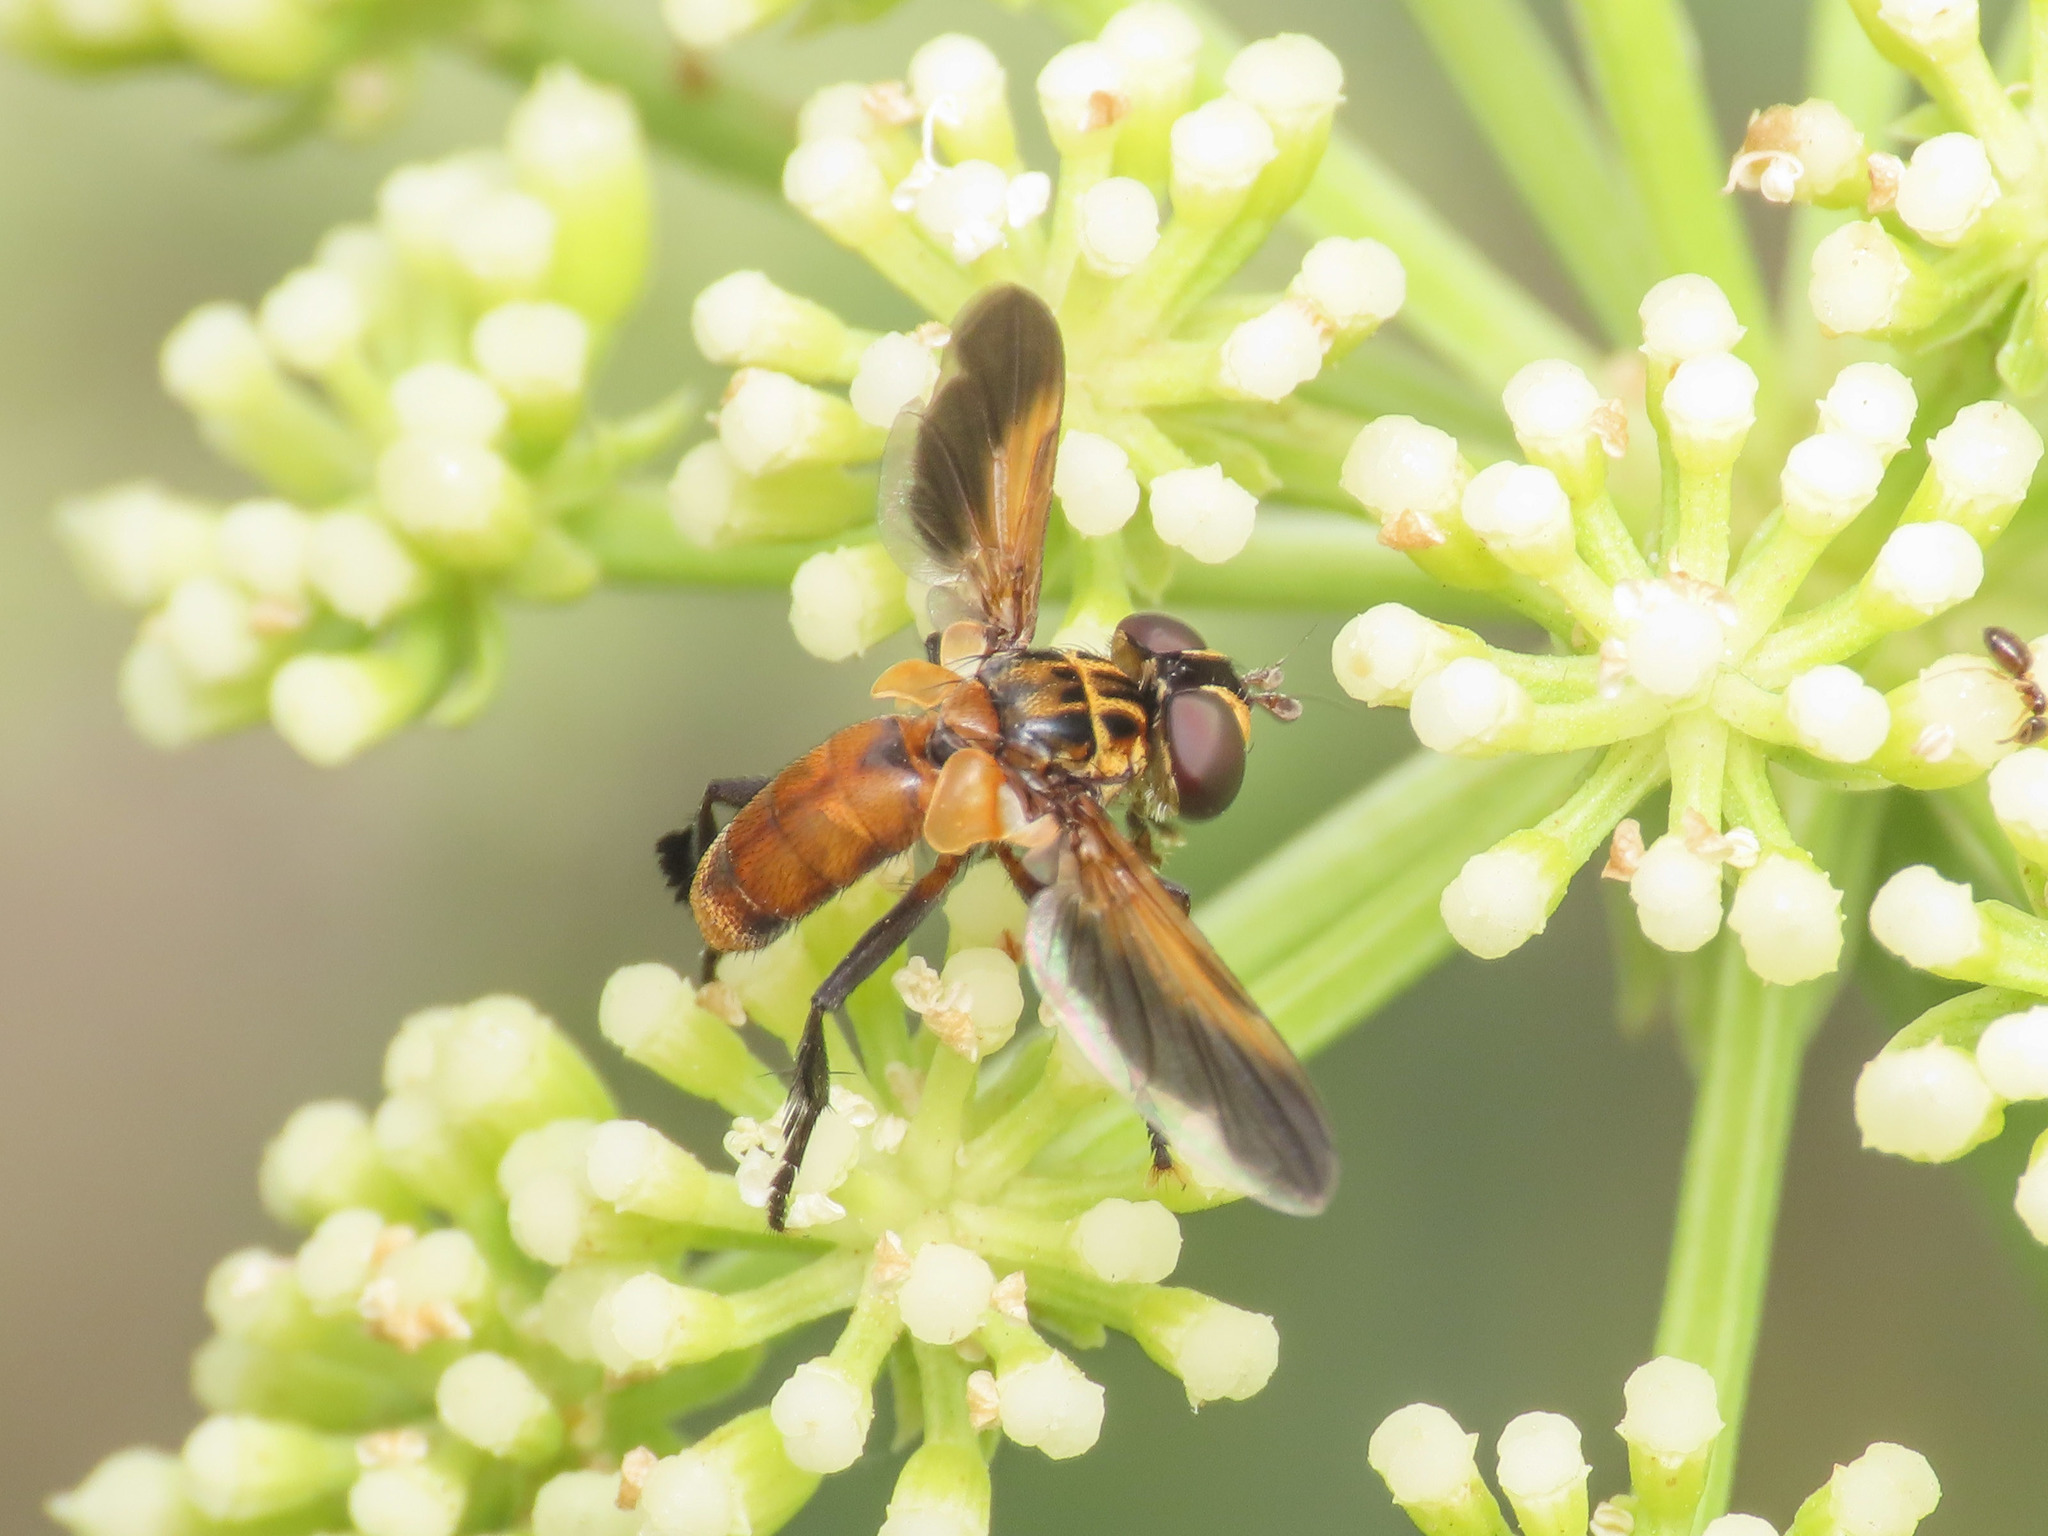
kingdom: Animalia
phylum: Arthropoda
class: Insecta
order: Diptera
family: Tachinidae
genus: Trichopoda
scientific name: Trichopoda pictipennis
